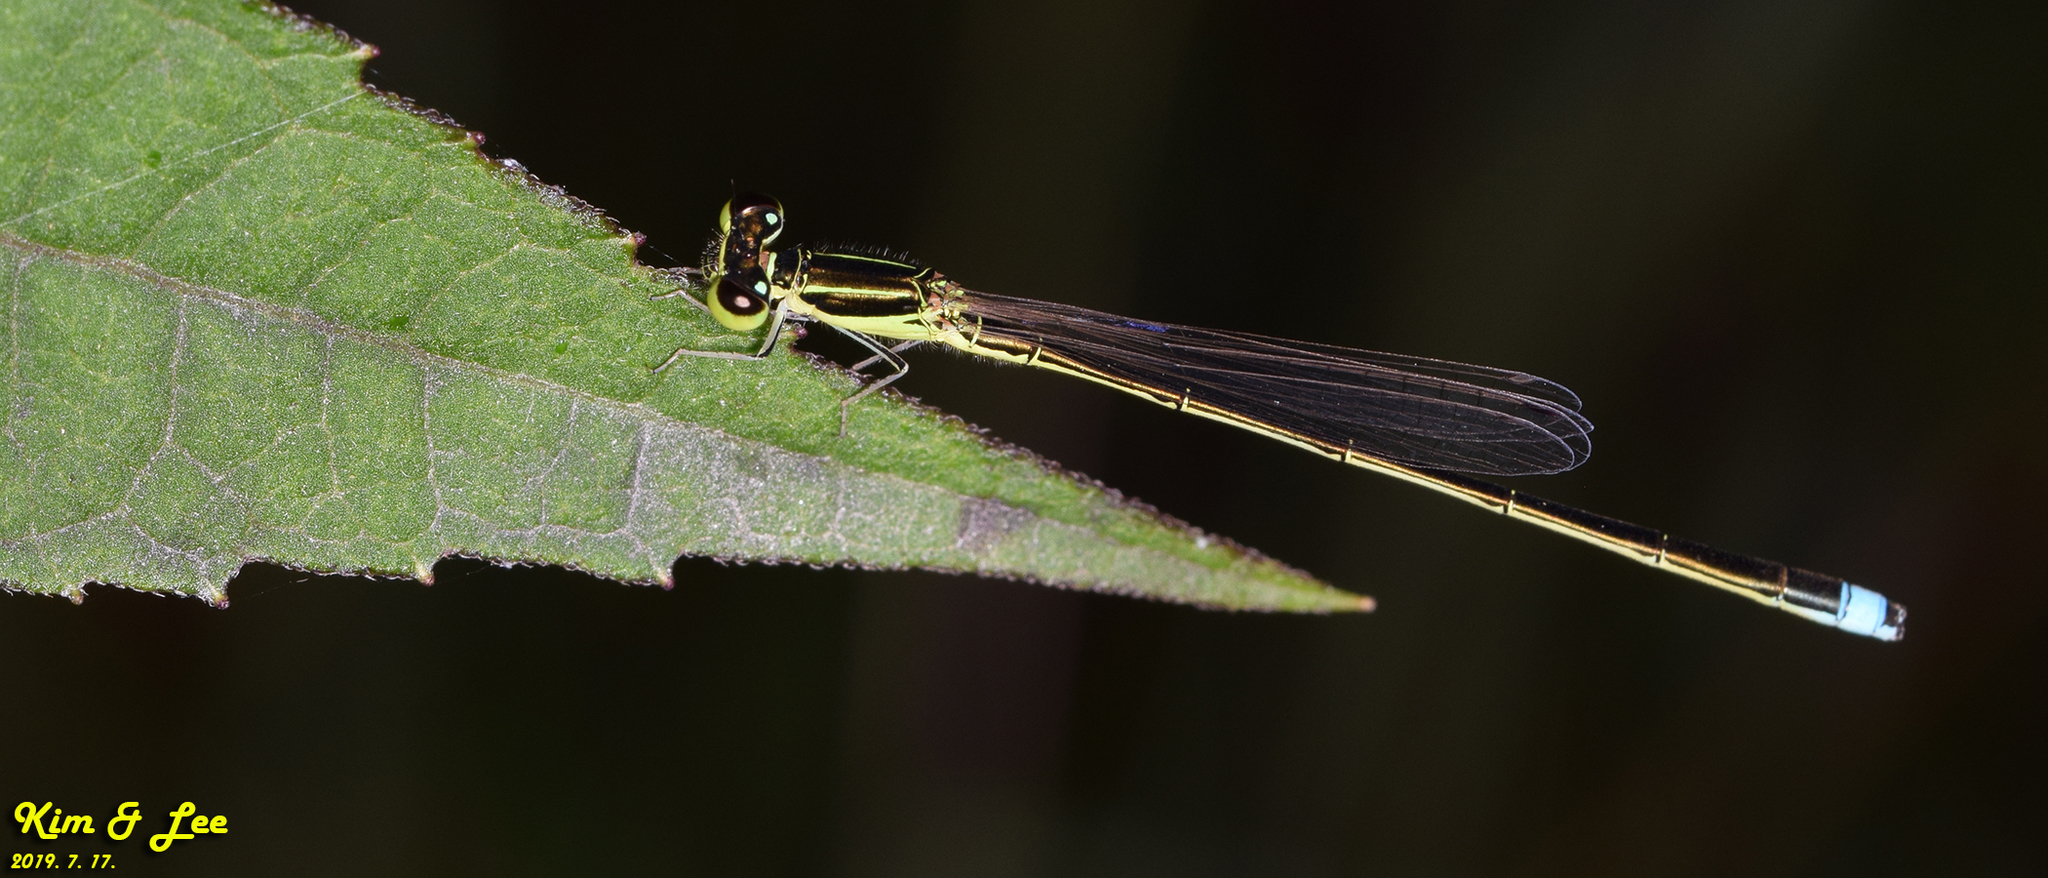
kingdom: Animalia
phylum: Arthropoda
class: Insecta
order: Odonata
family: Coenagrionidae
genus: Ischnura
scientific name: Ischnura asiatica
